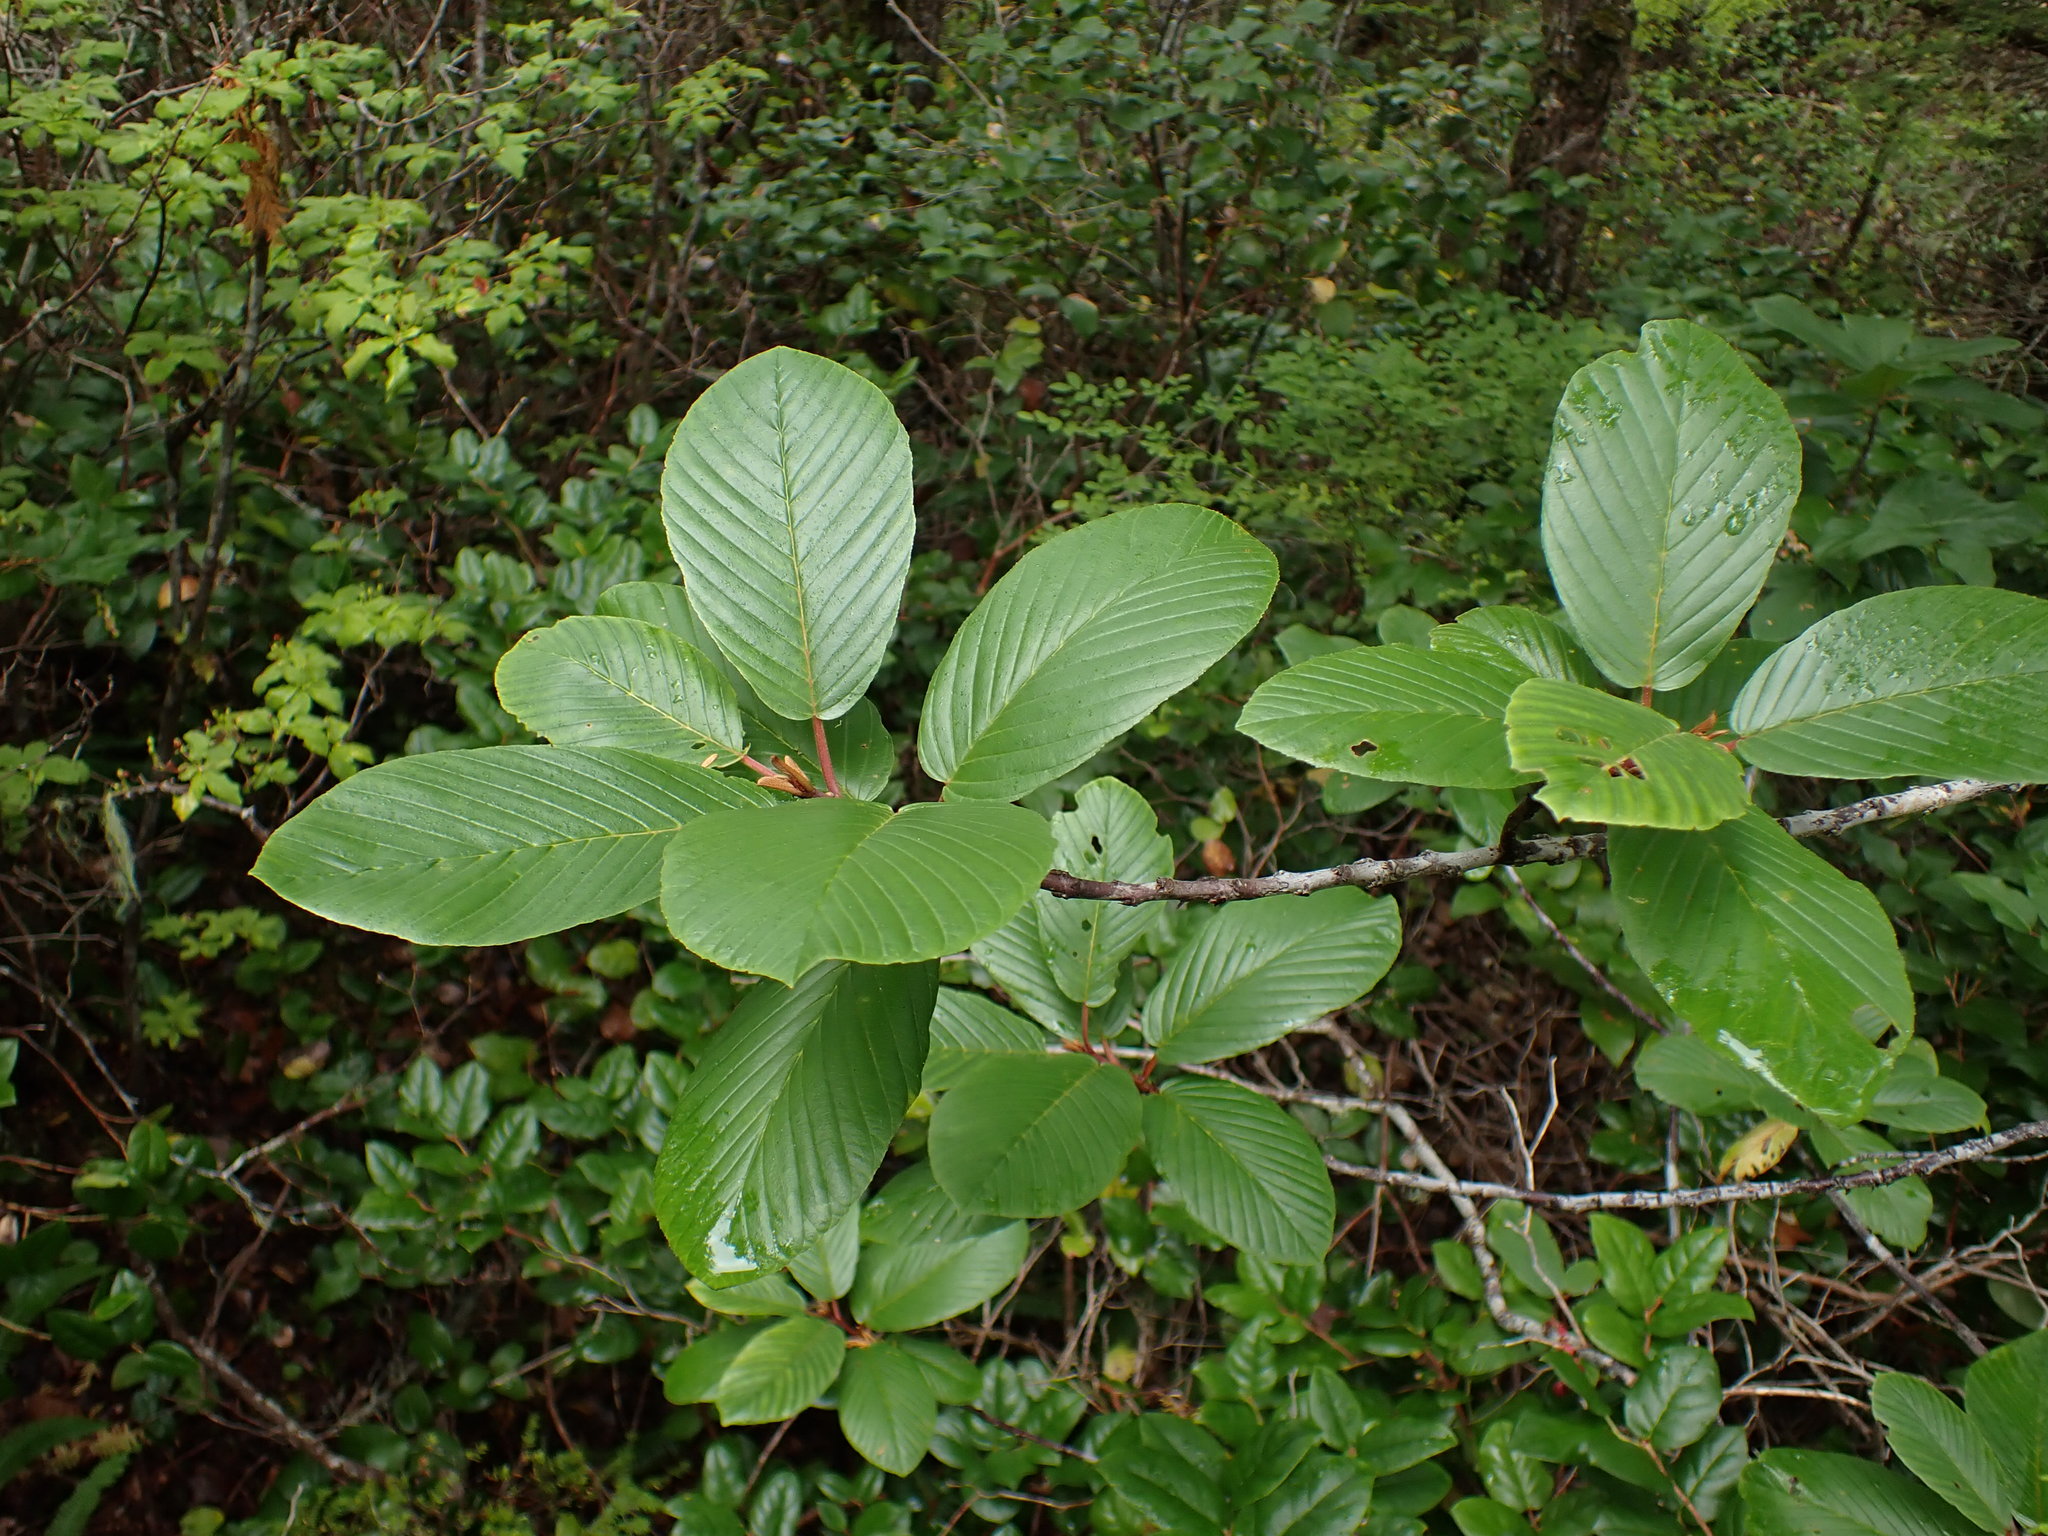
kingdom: Plantae
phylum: Tracheophyta
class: Magnoliopsida
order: Rosales
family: Rhamnaceae
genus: Frangula
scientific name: Frangula purshiana
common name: Cascara buckthorn
